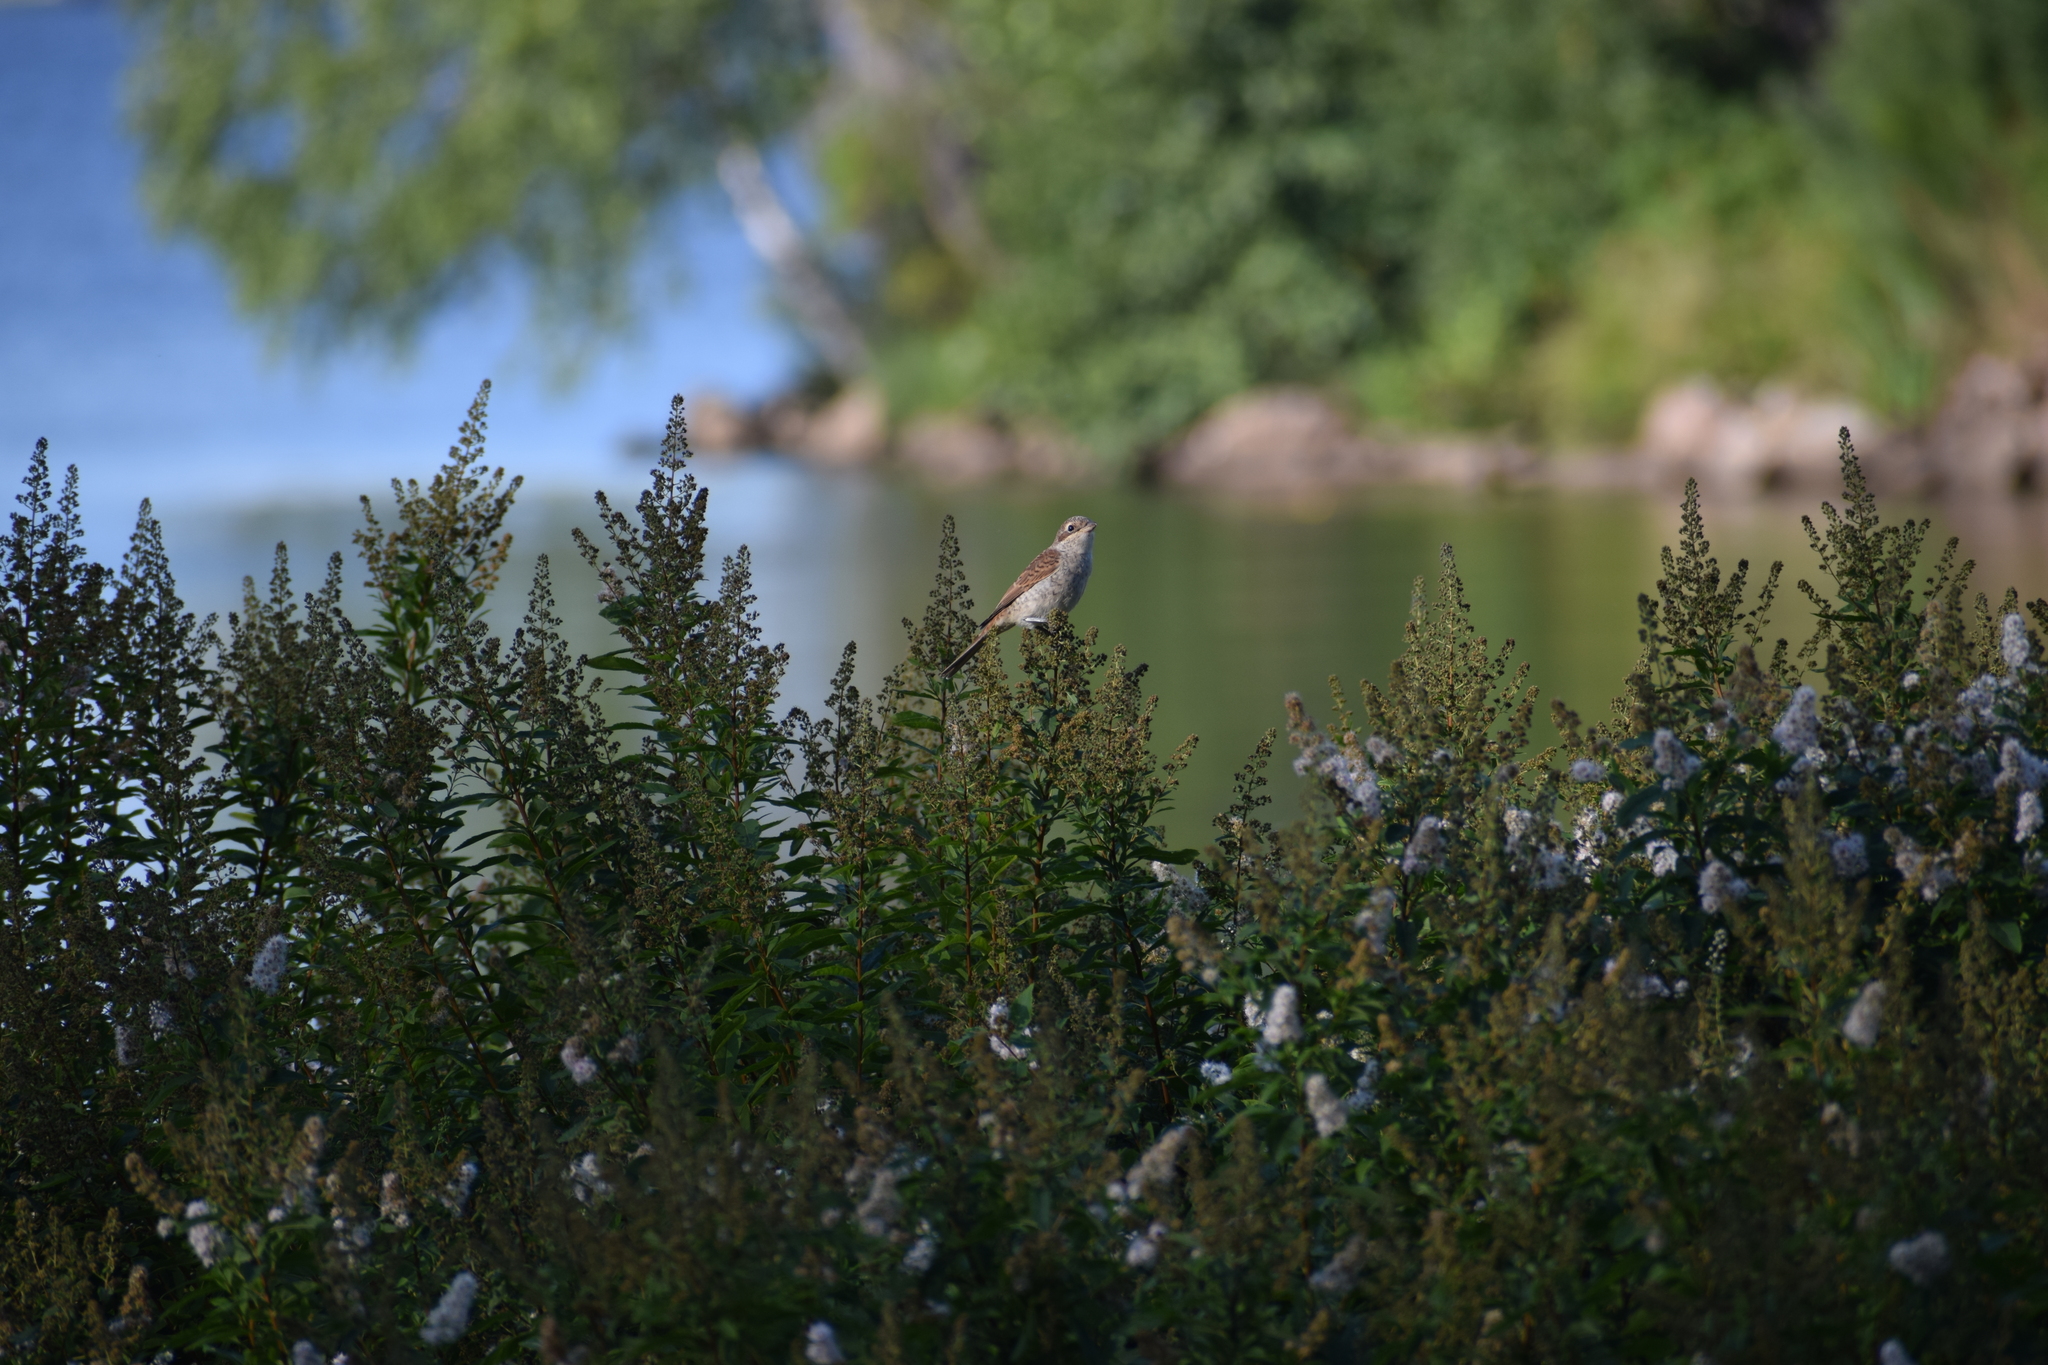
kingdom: Animalia
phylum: Chordata
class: Aves
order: Passeriformes
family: Laniidae
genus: Lanius
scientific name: Lanius collurio
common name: Red-backed shrike
